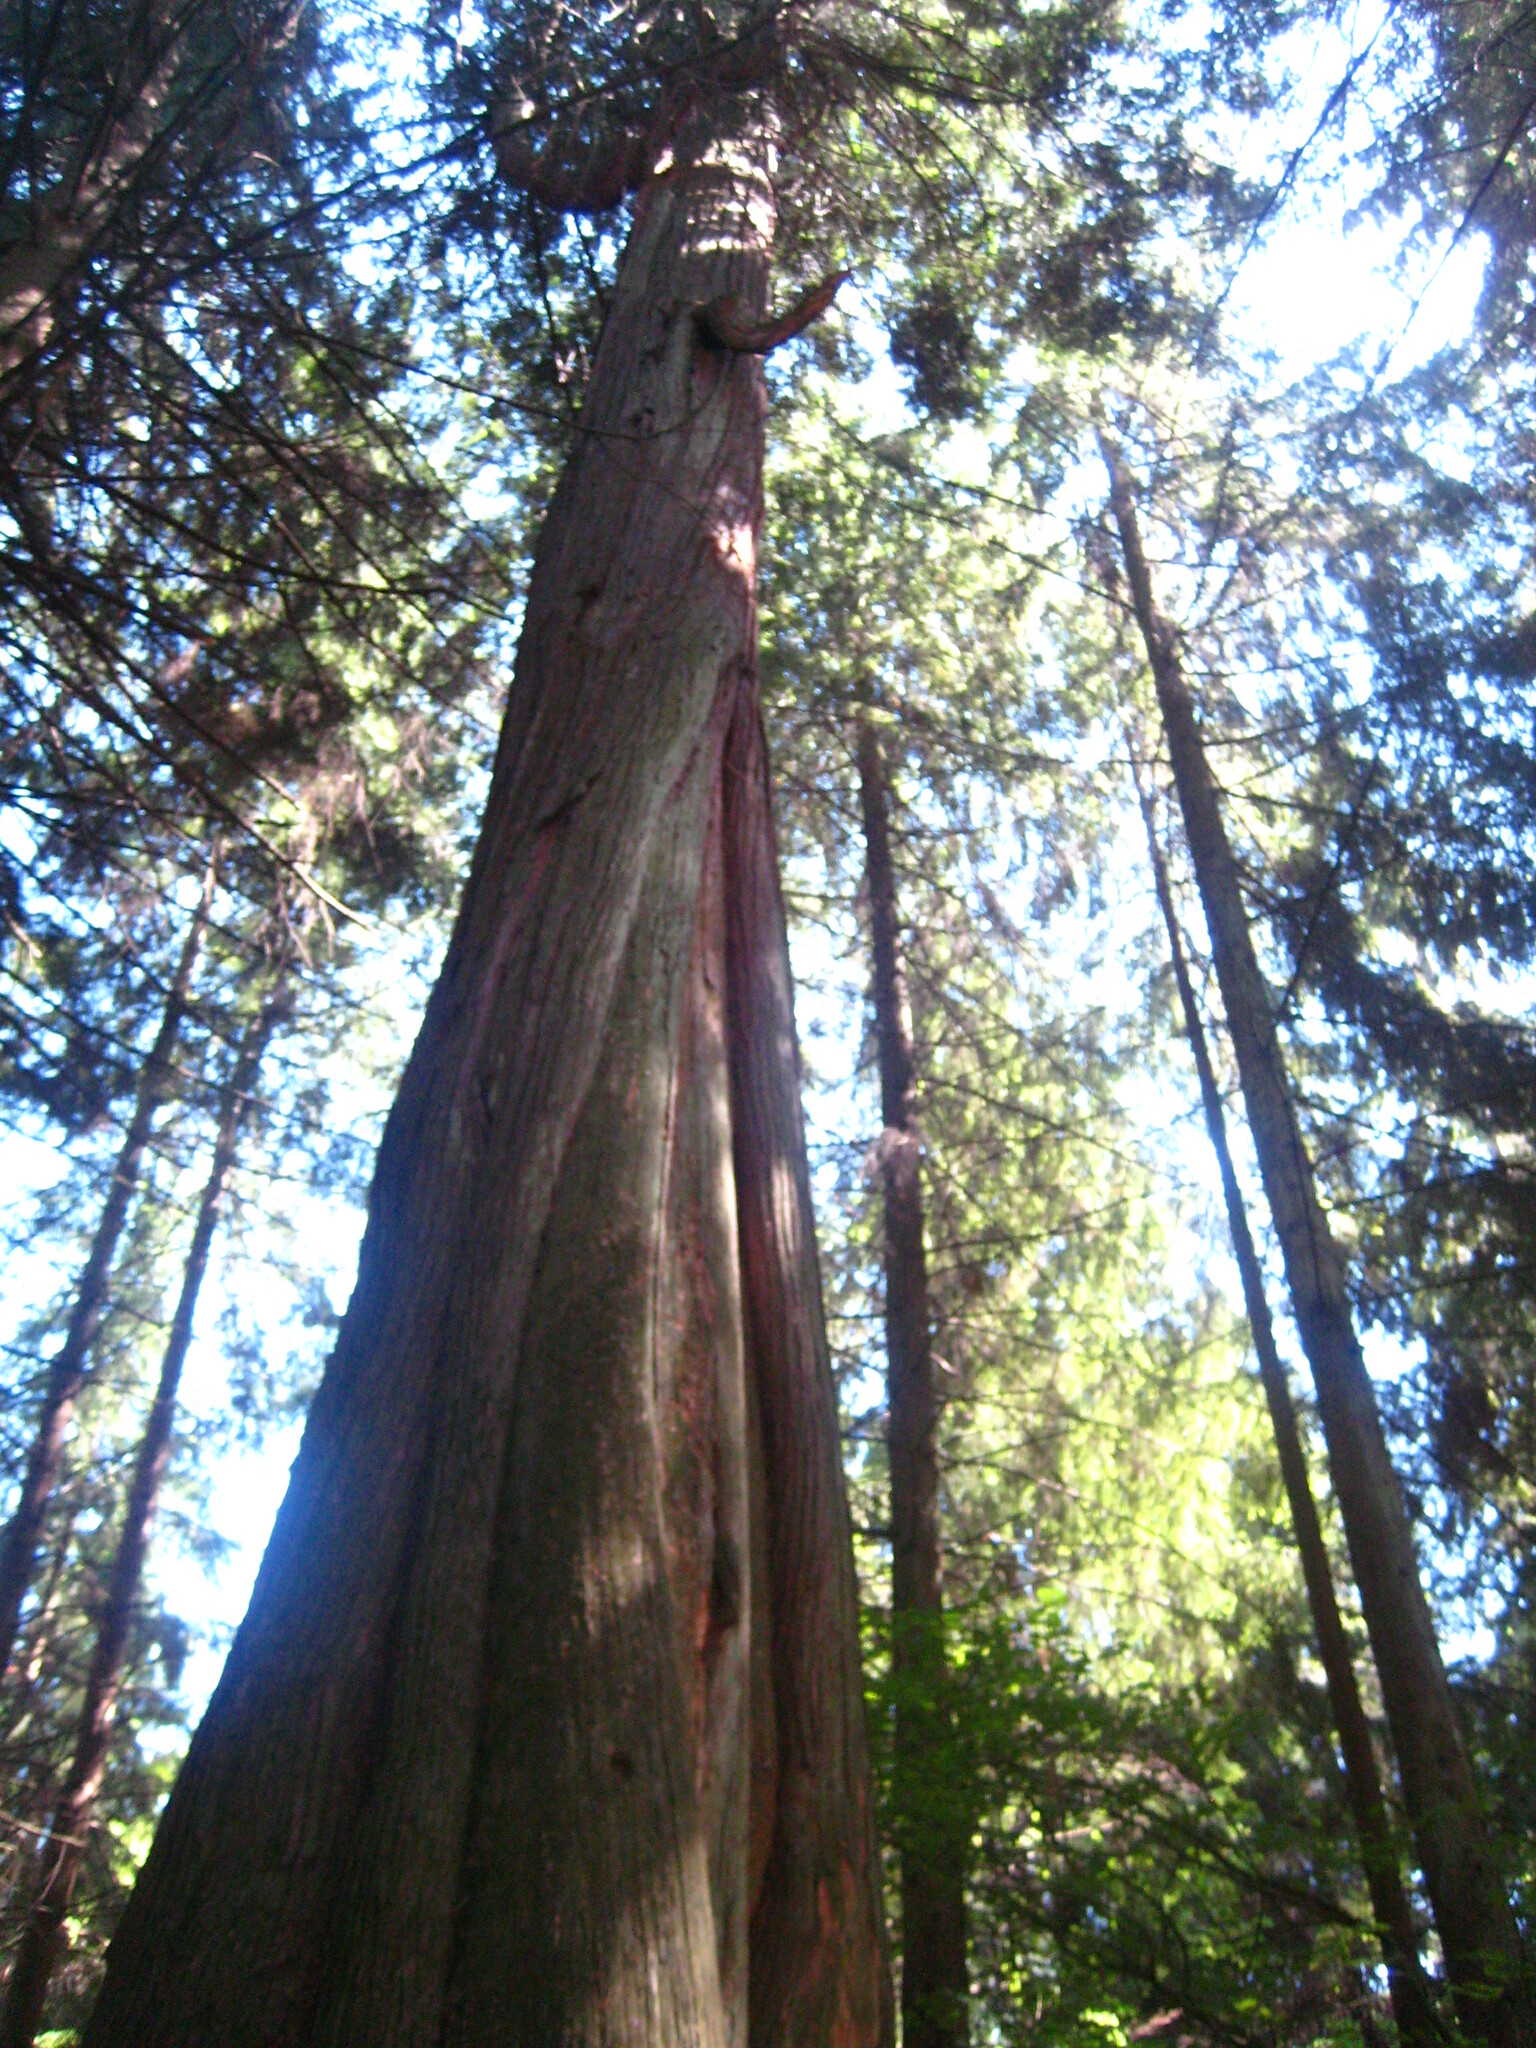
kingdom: Plantae
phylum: Tracheophyta
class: Pinopsida
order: Pinales
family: Cupressaceae
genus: Thuja
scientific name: Thuja plicata
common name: Western red-cedar
